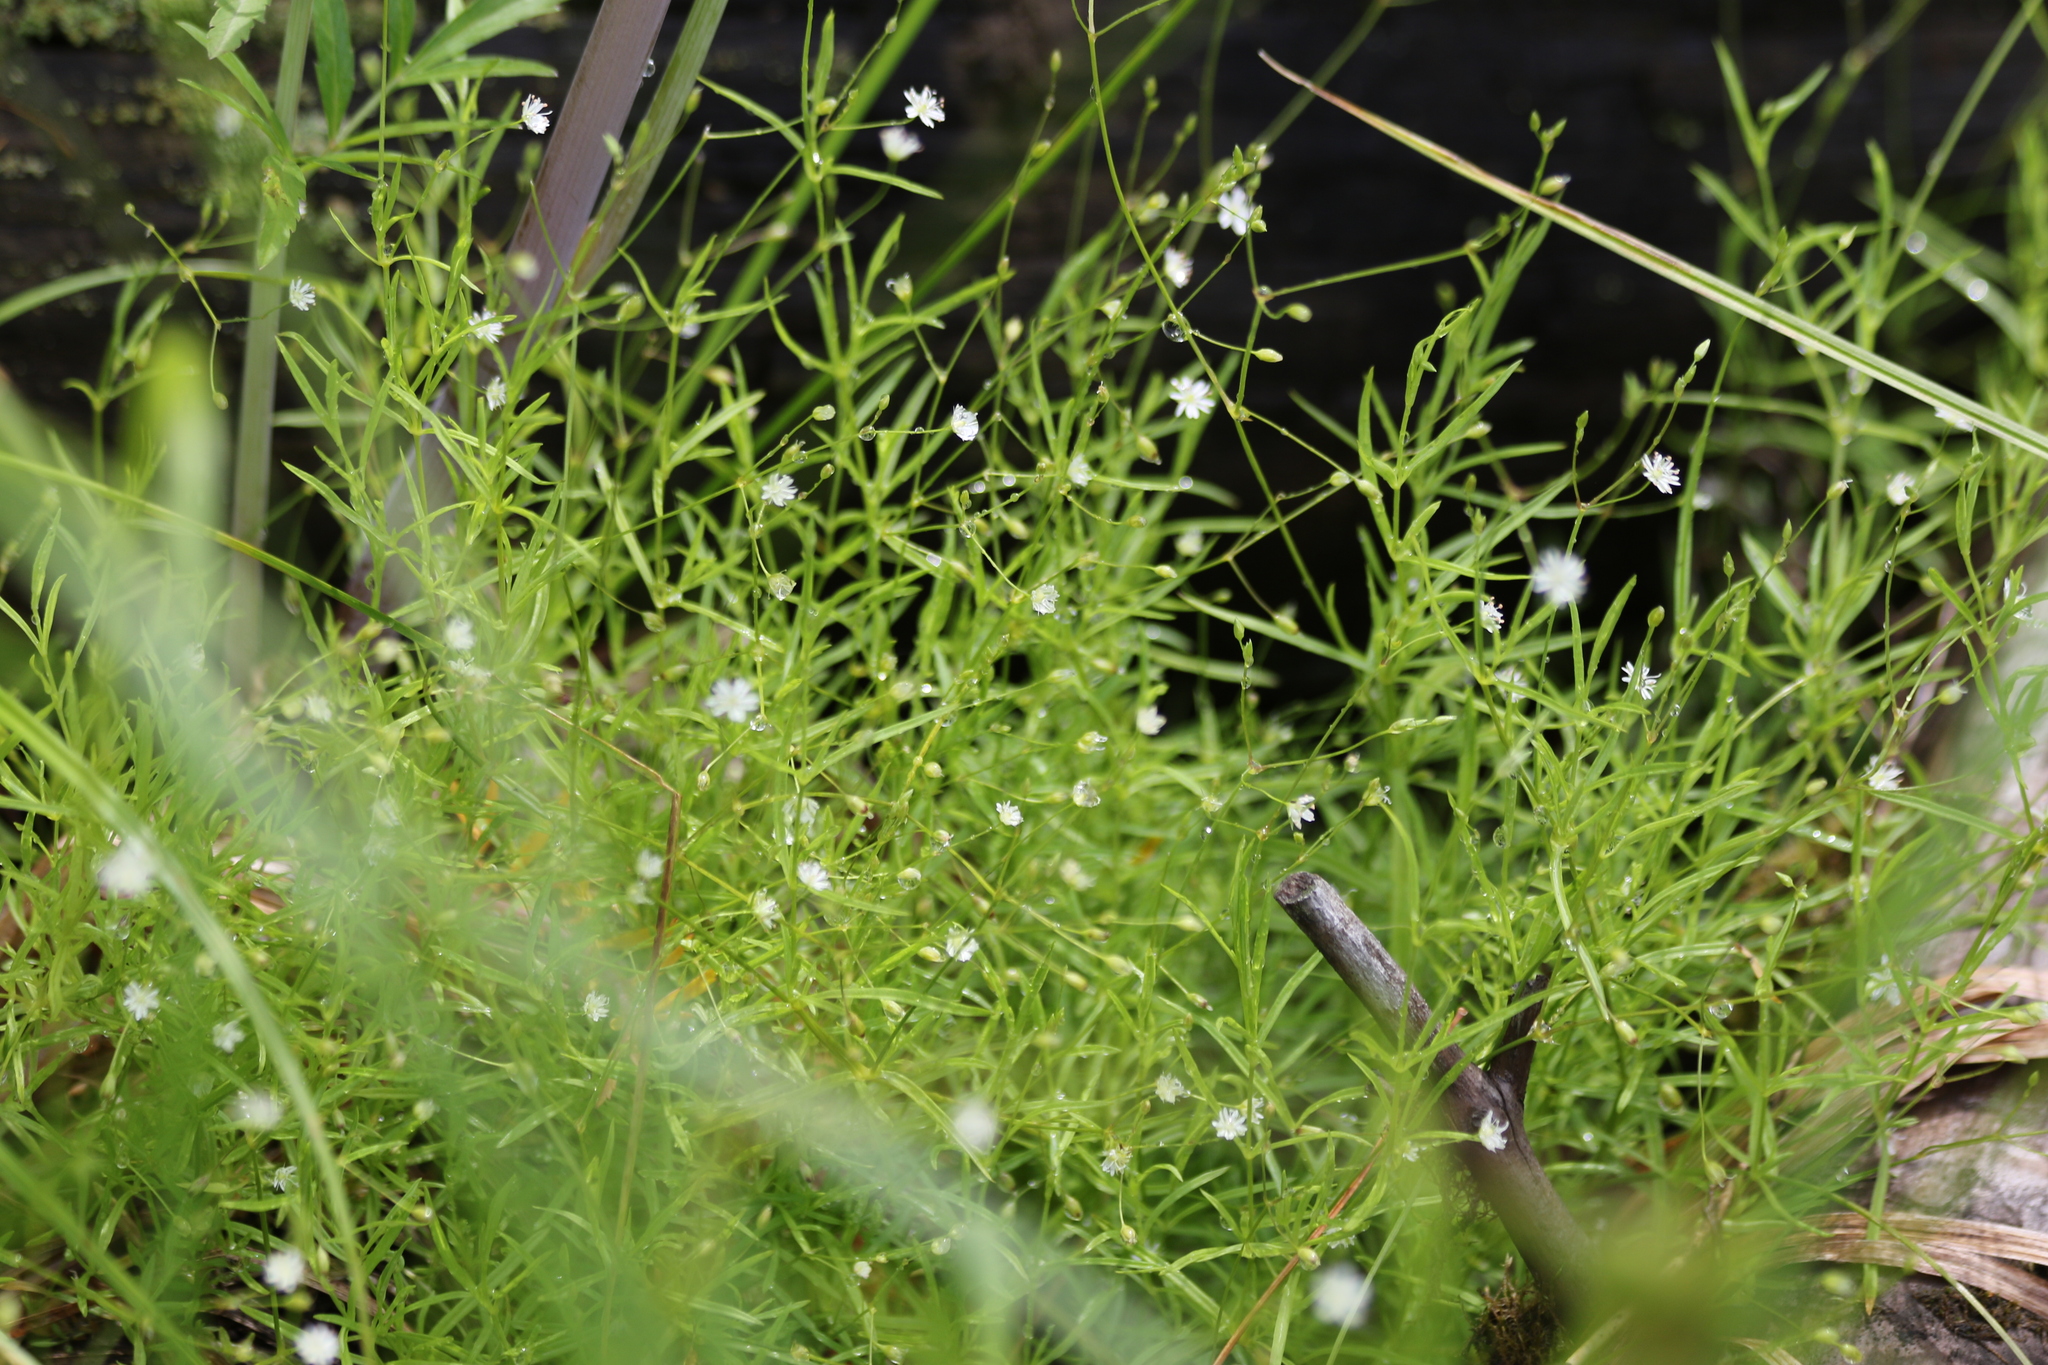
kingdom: Plantae
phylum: Tracheophyta
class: Magnoliopsida
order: Caryophyllales
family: Caryophyllaceae
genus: Stellaria
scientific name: Stellaria longifolia
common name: Long-leaved chickweed
